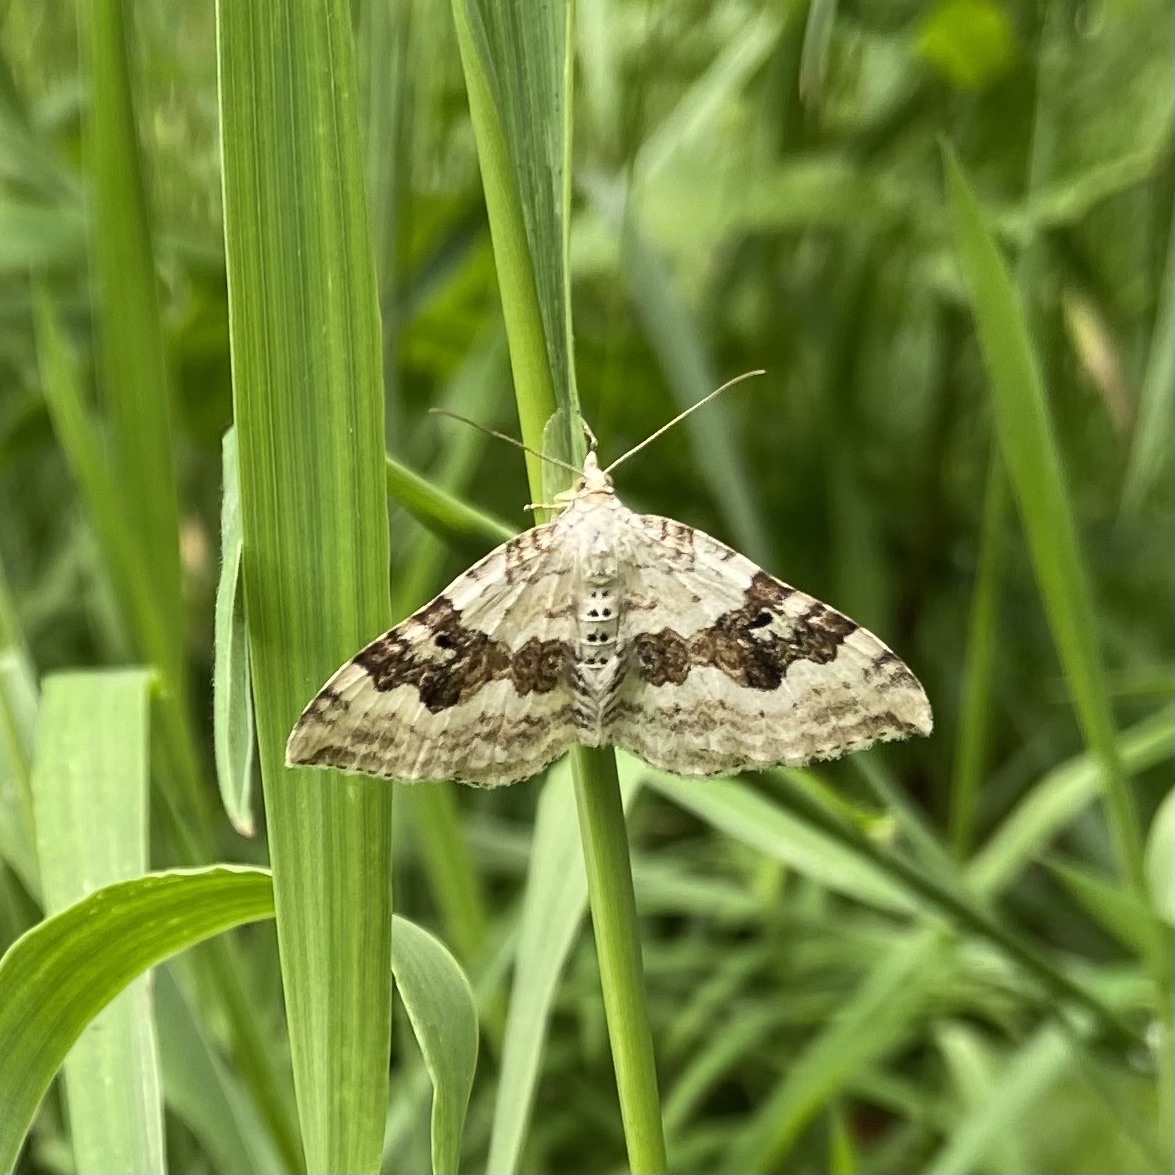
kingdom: Animalia
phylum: Arthropoda
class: Insecta
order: Lepidoptera
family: Geometridae
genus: Xanthorhoe
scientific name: Xanthorhoe montanata
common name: Silver-ground carpet
